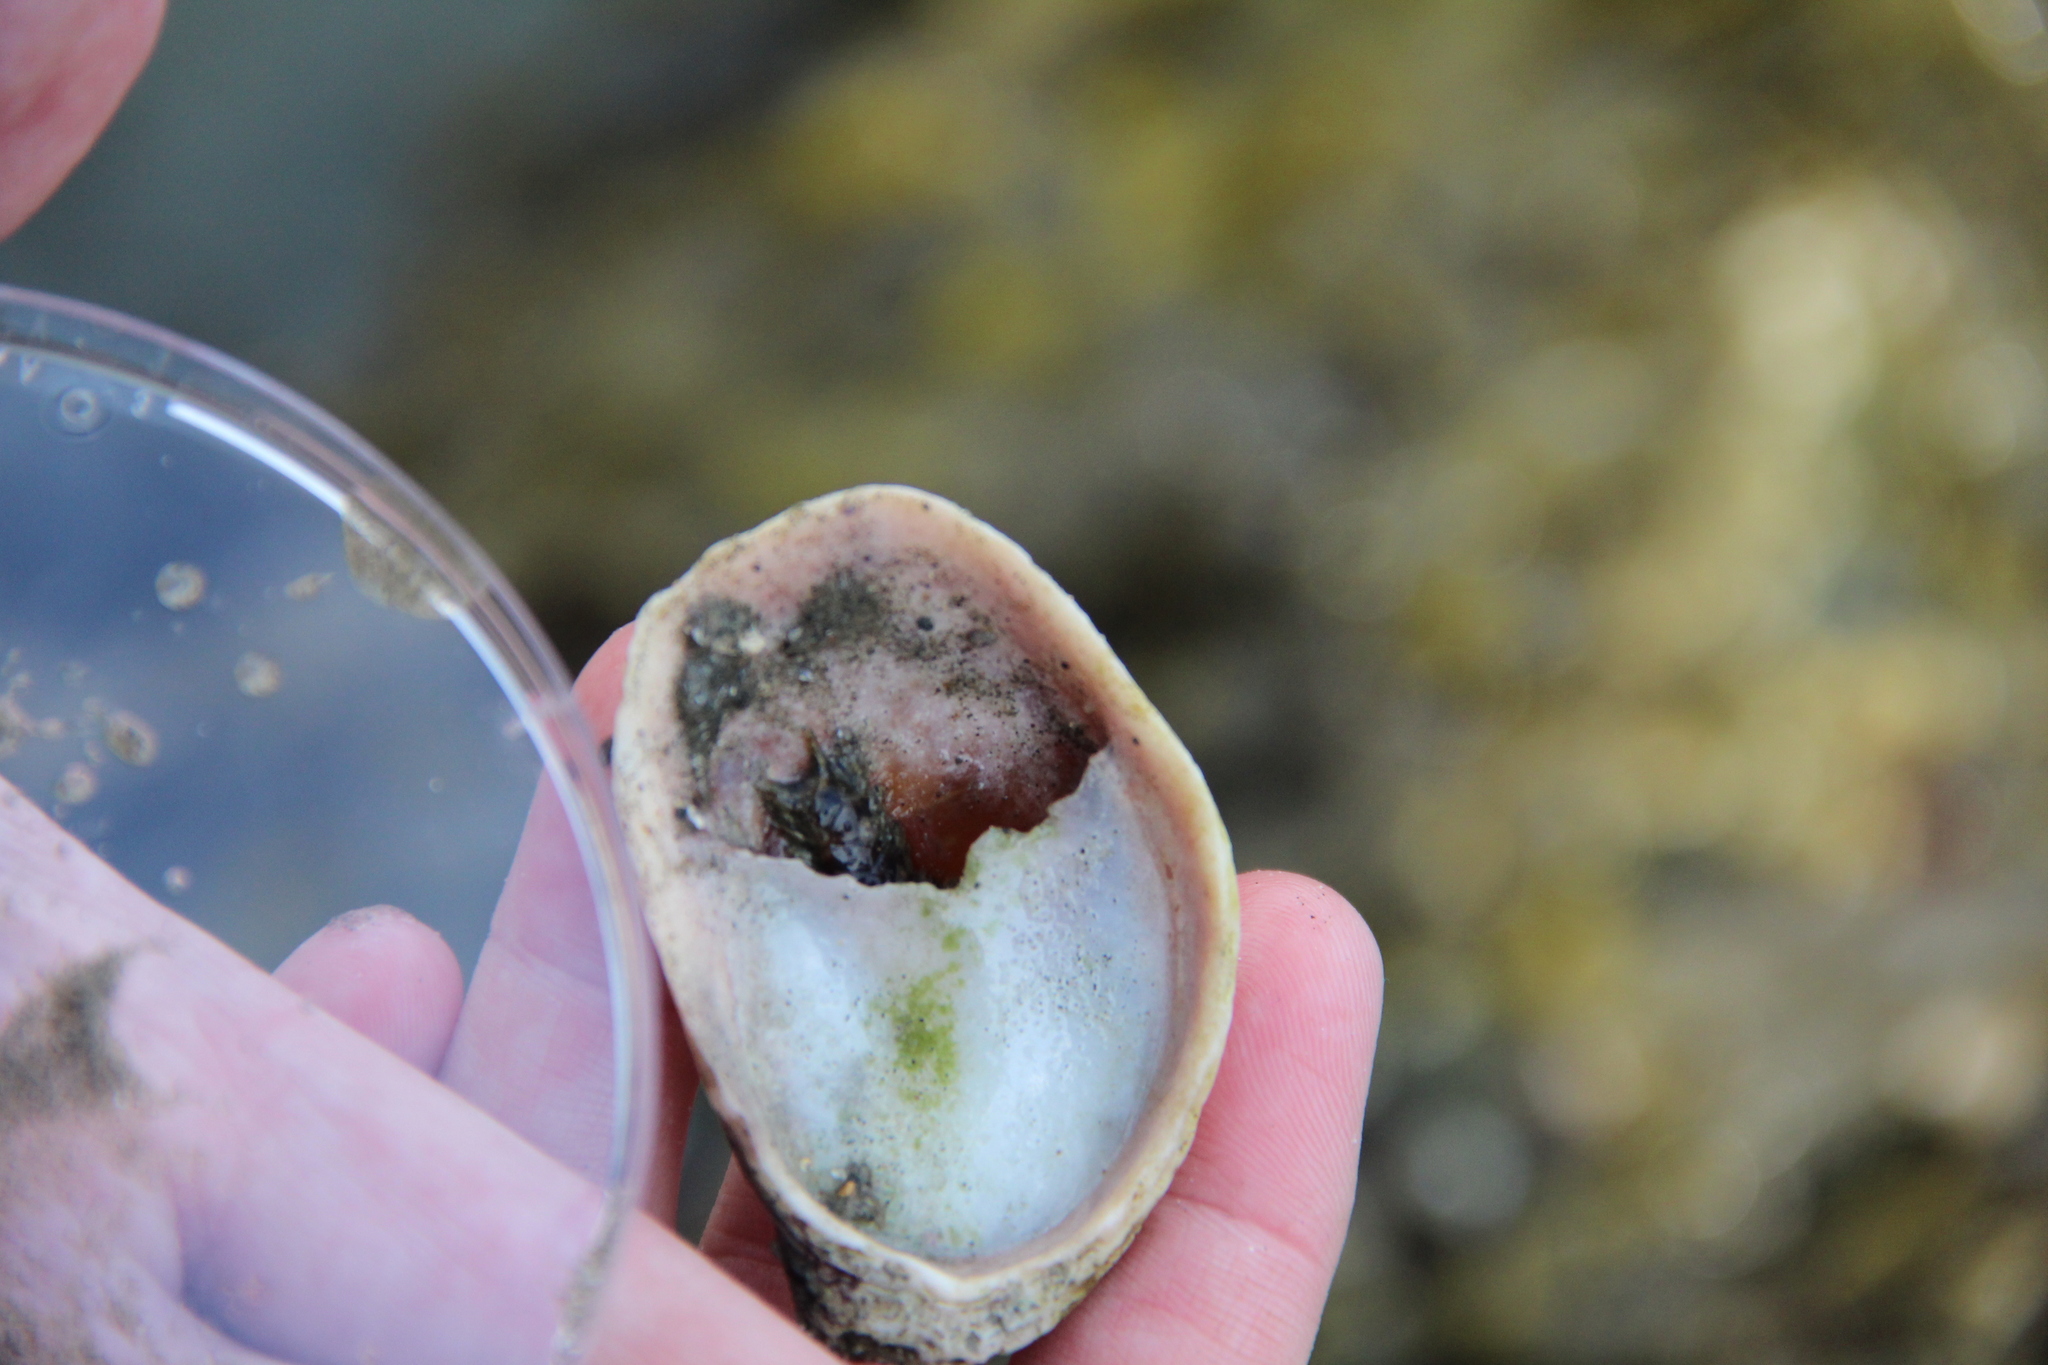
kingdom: Animalia
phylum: Mollusca
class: Gastropoda
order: Littorinimorpha
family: Calyptraeidae
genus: Crepidula
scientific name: Crepidula fornicata
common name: Slipper limpet
